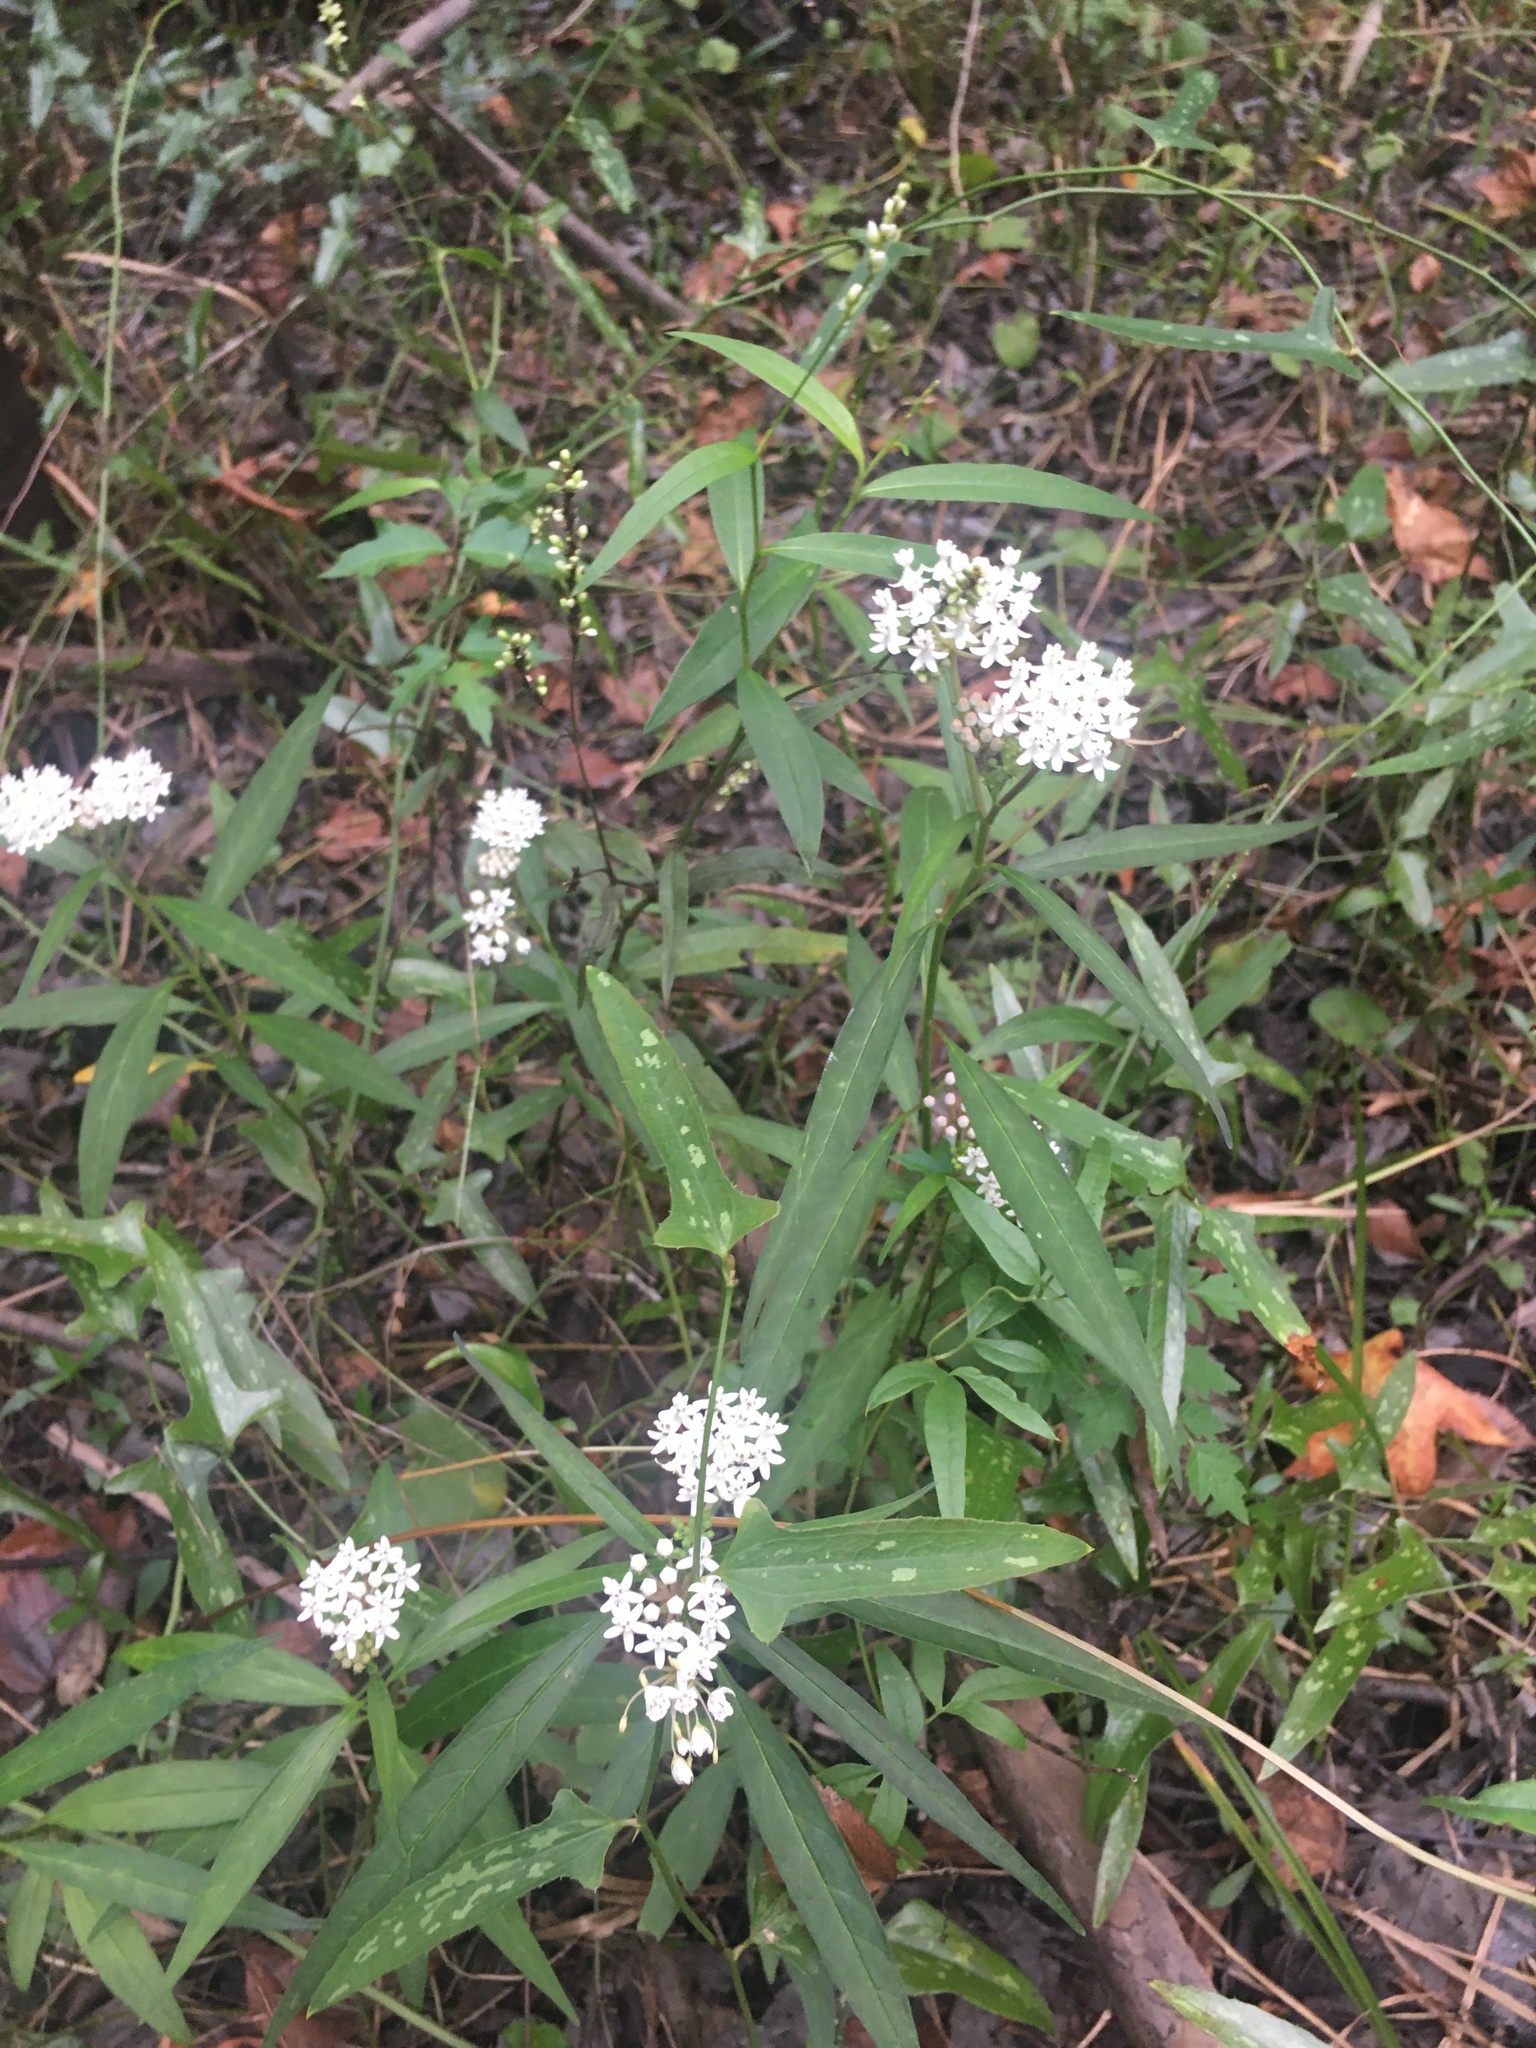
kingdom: Plantae
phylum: Tracheophyta
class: Magnoliopsida
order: Gentianales
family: Apocynaceae
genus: Asclepias
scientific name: Asclepias perennis
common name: Smooth-seed milkweed
